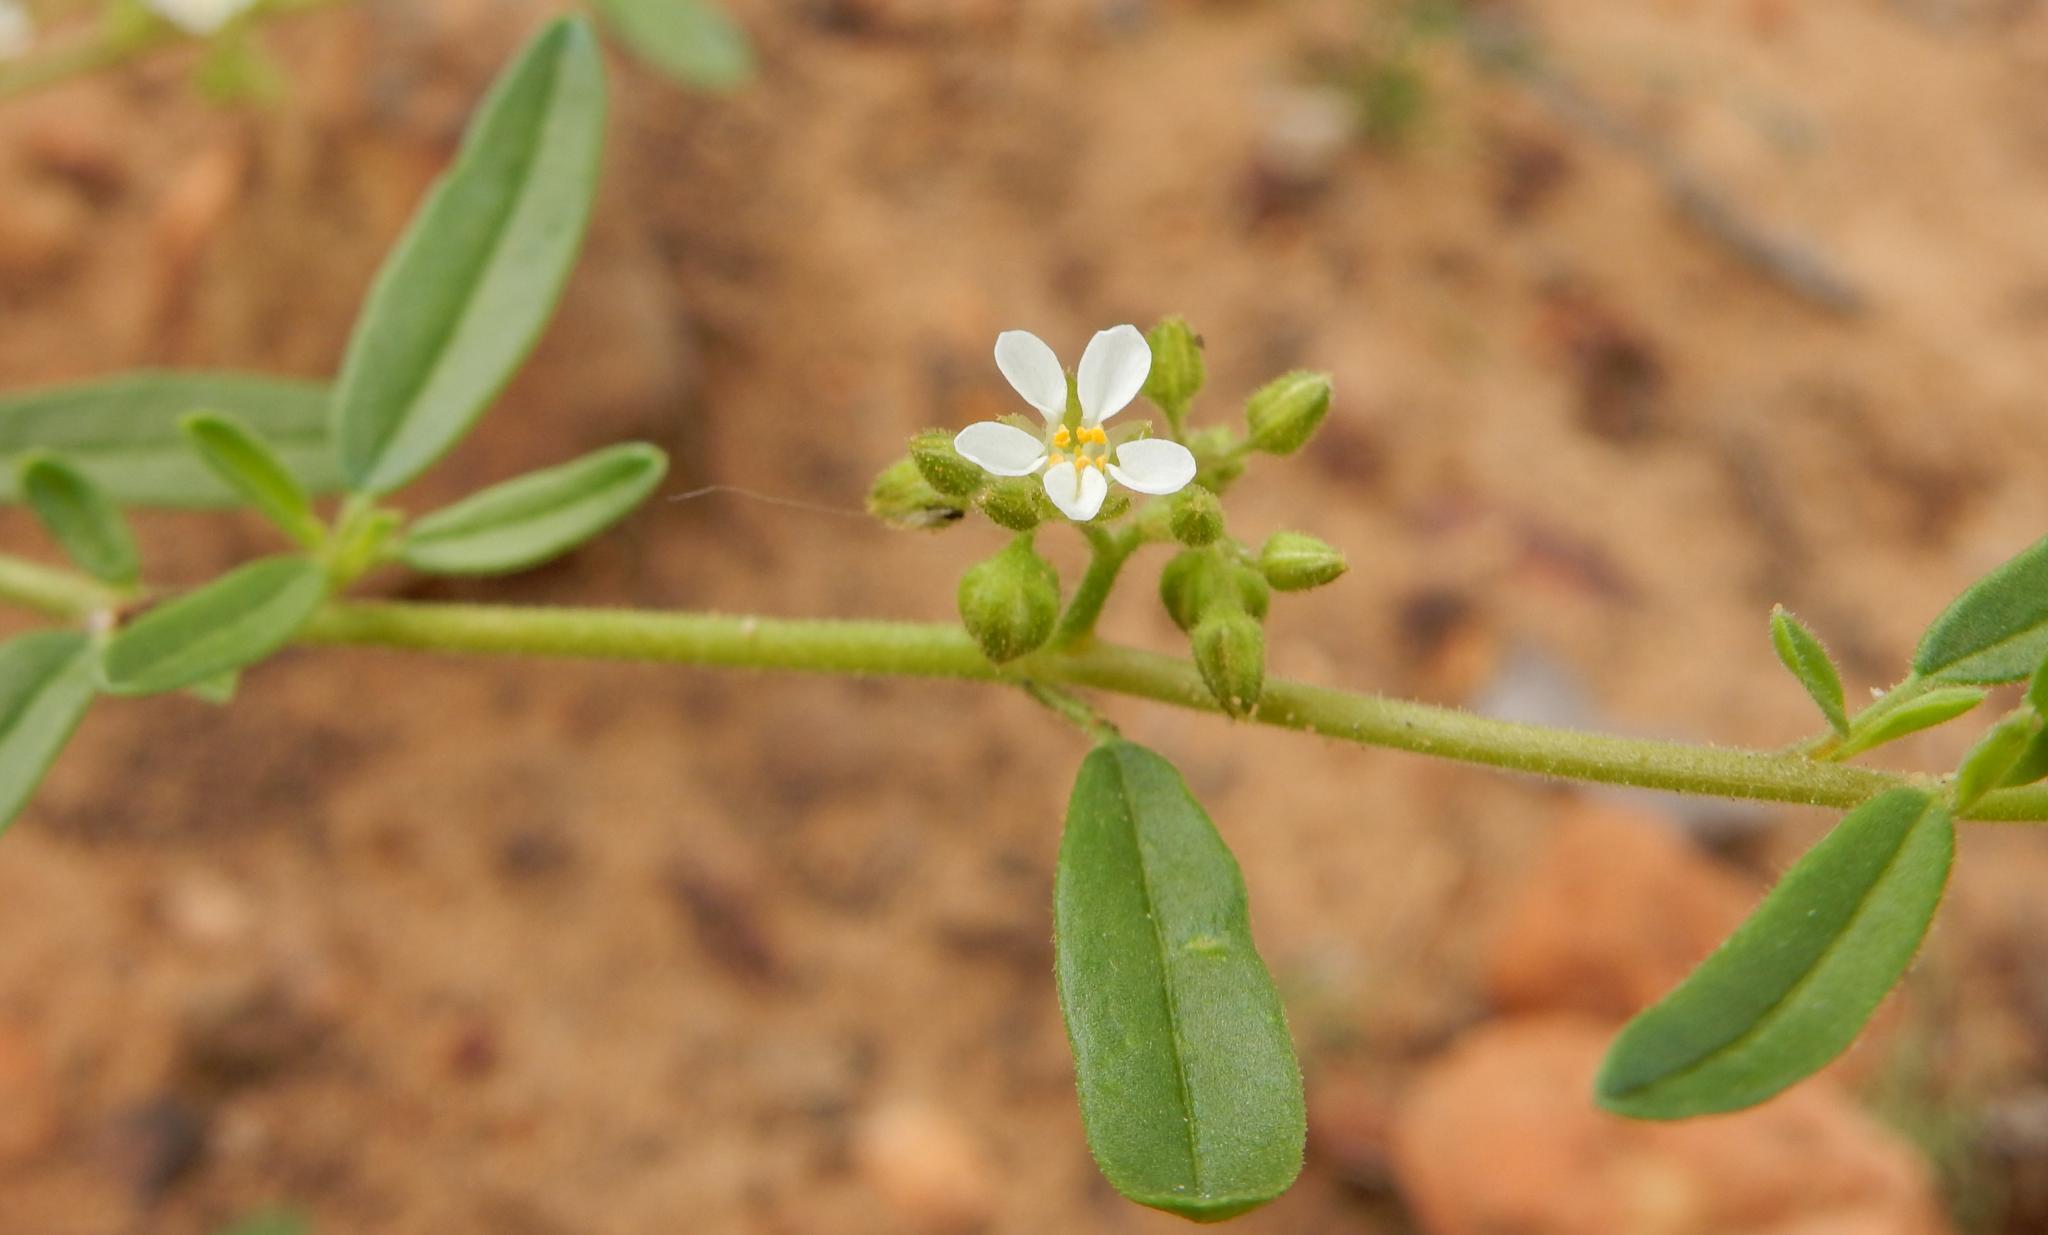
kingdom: Plantae
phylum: Tracheophyta
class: Magnoliopsida
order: Caryophyllales
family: Limeaceae
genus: Limeum
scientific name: Limeum viscosum
